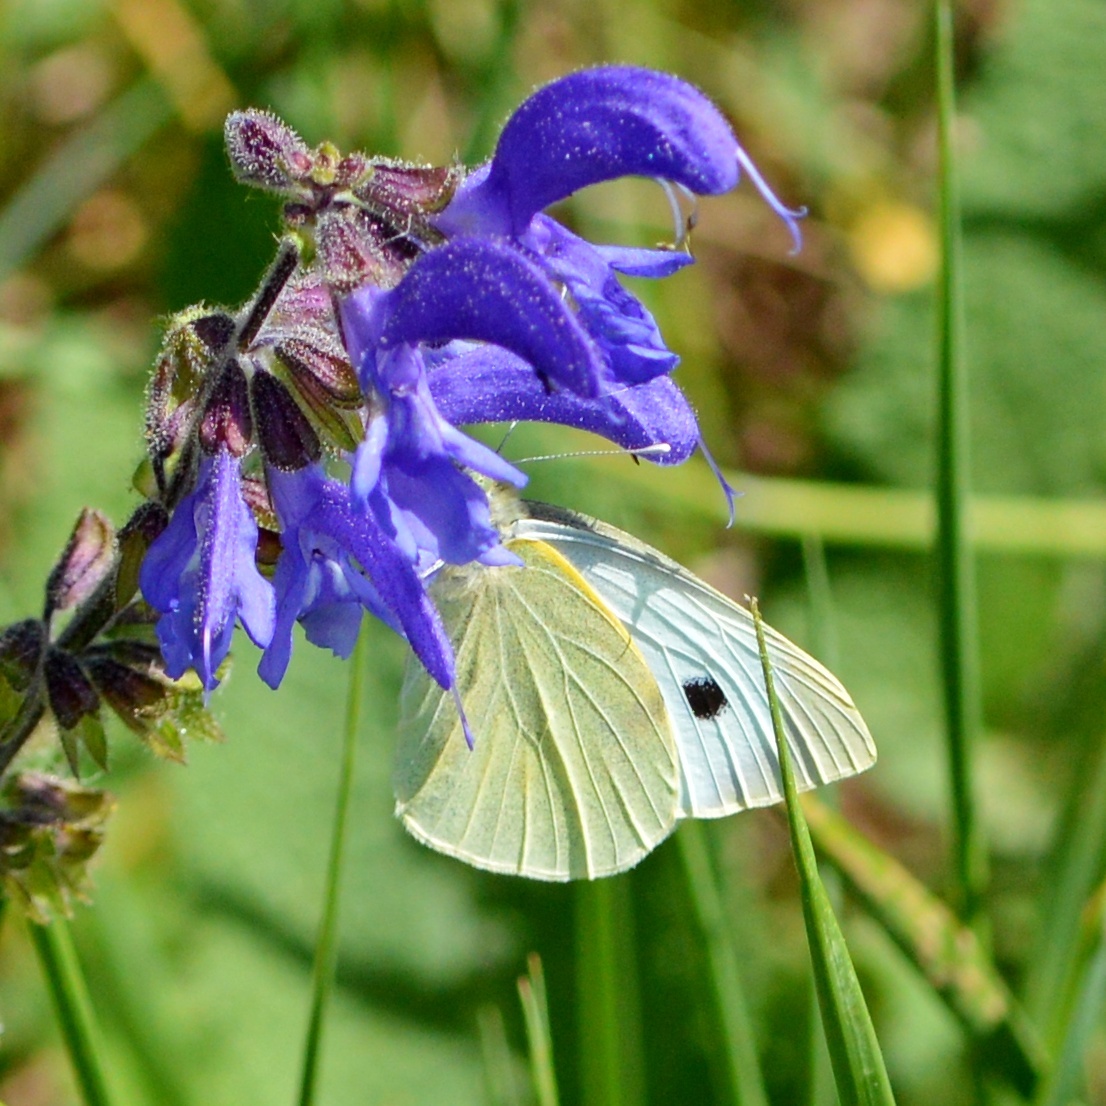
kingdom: Animalia
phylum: Arthropoda
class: Insecta
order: Lepidoptera
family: Pieridae
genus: Pieris
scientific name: Pieris brassicae
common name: Large white
